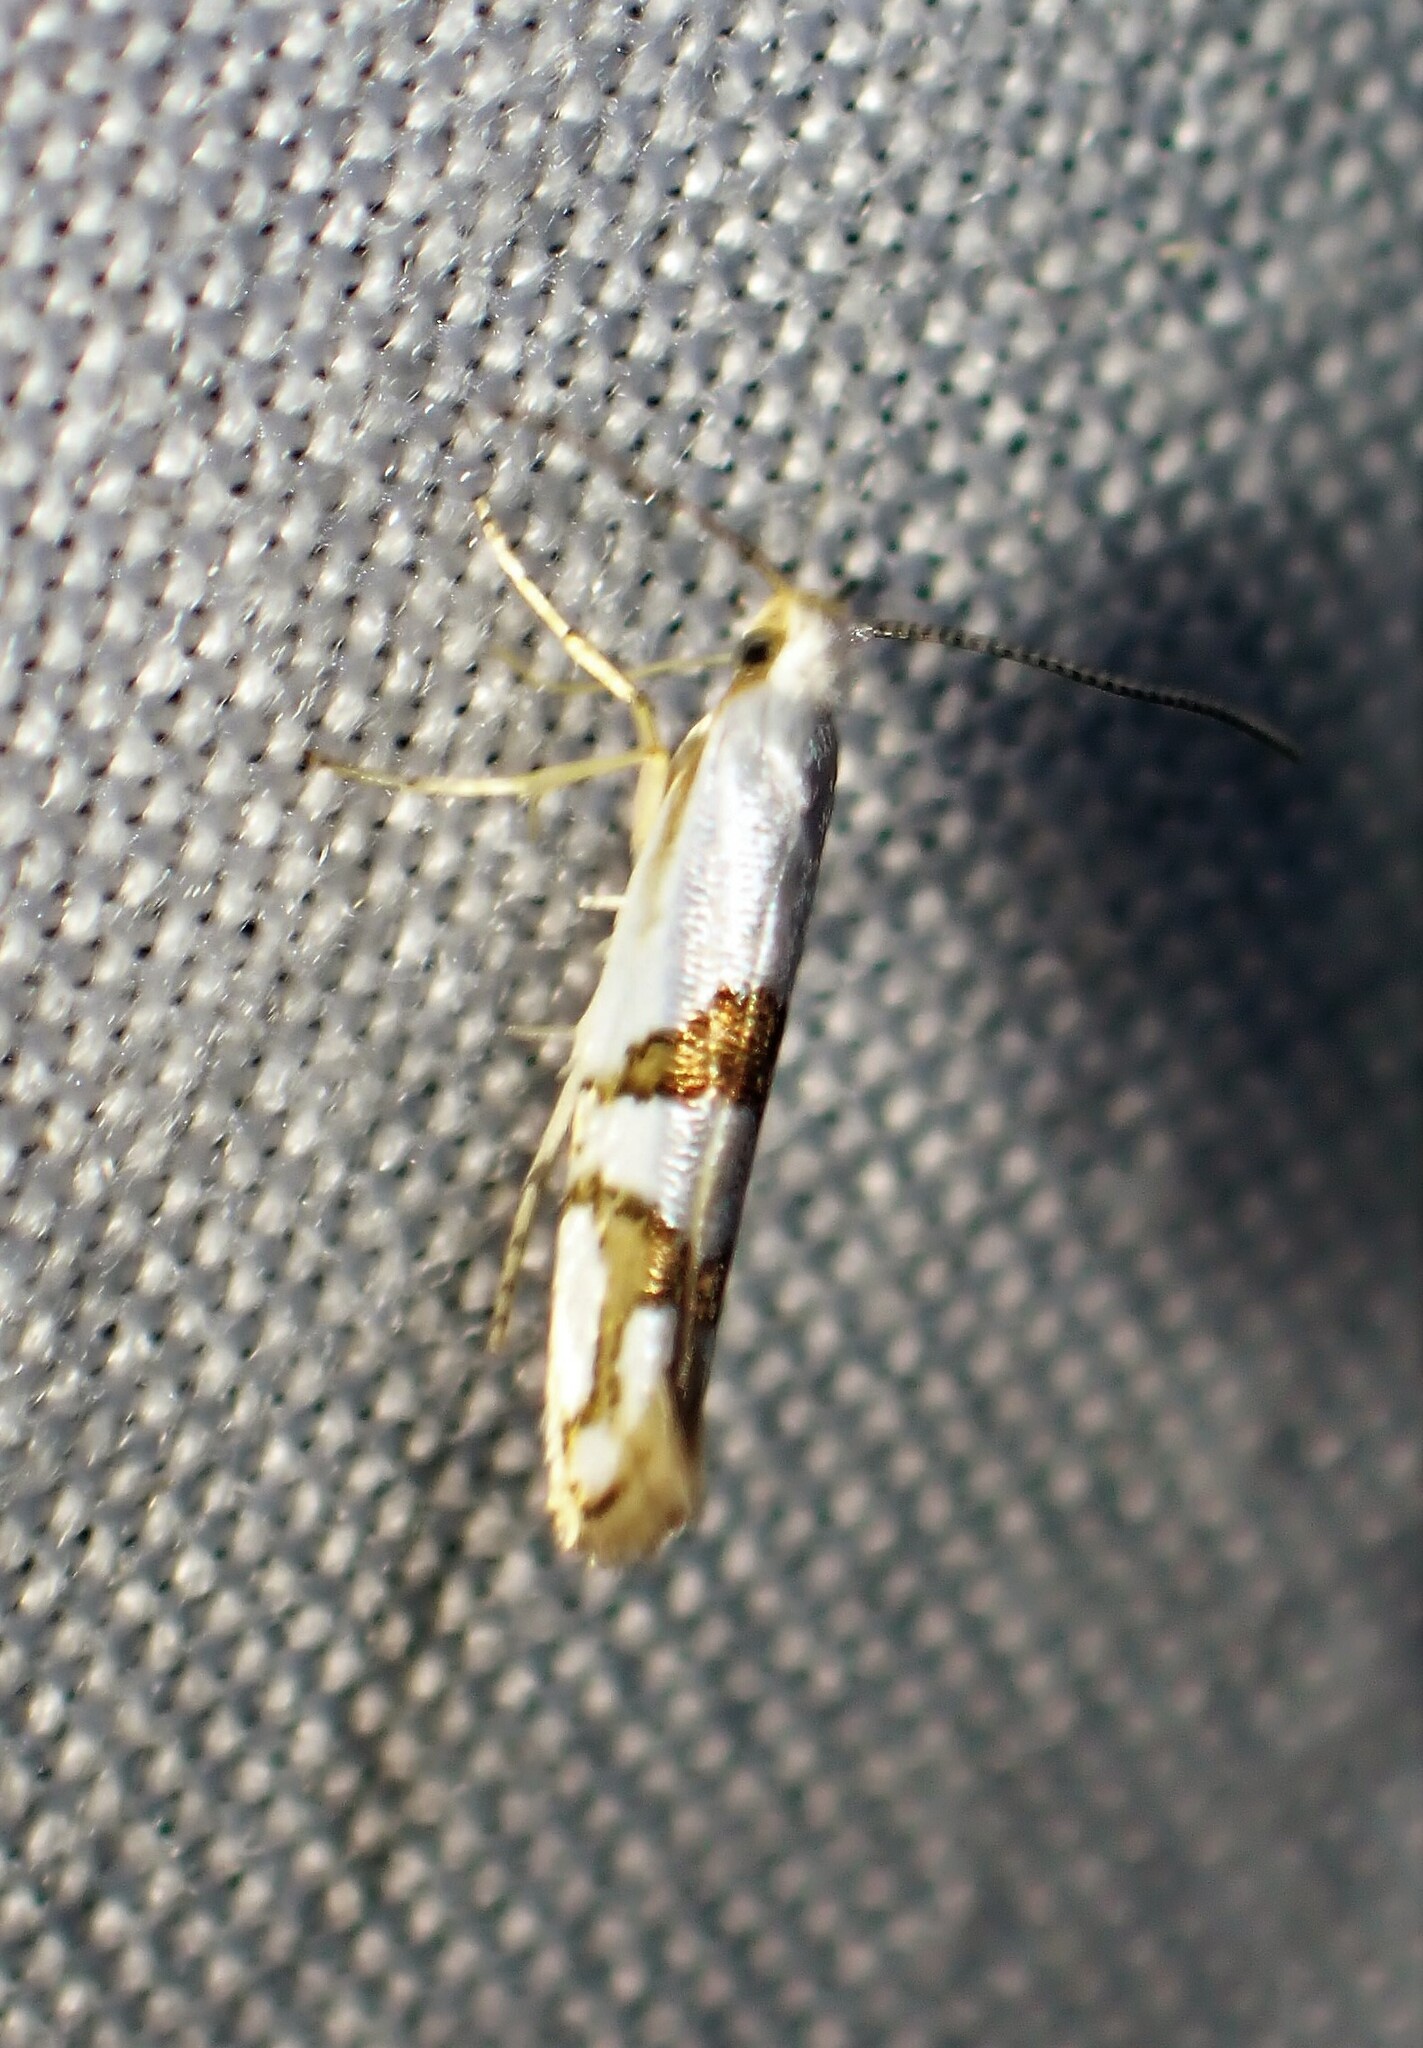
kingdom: Animalia
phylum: Arthropoda
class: Insecta
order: Lepidoptera
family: Argyresthiidae
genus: Argyresthia
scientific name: Argyresthia oreasella
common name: Cherry shoot borer moth
